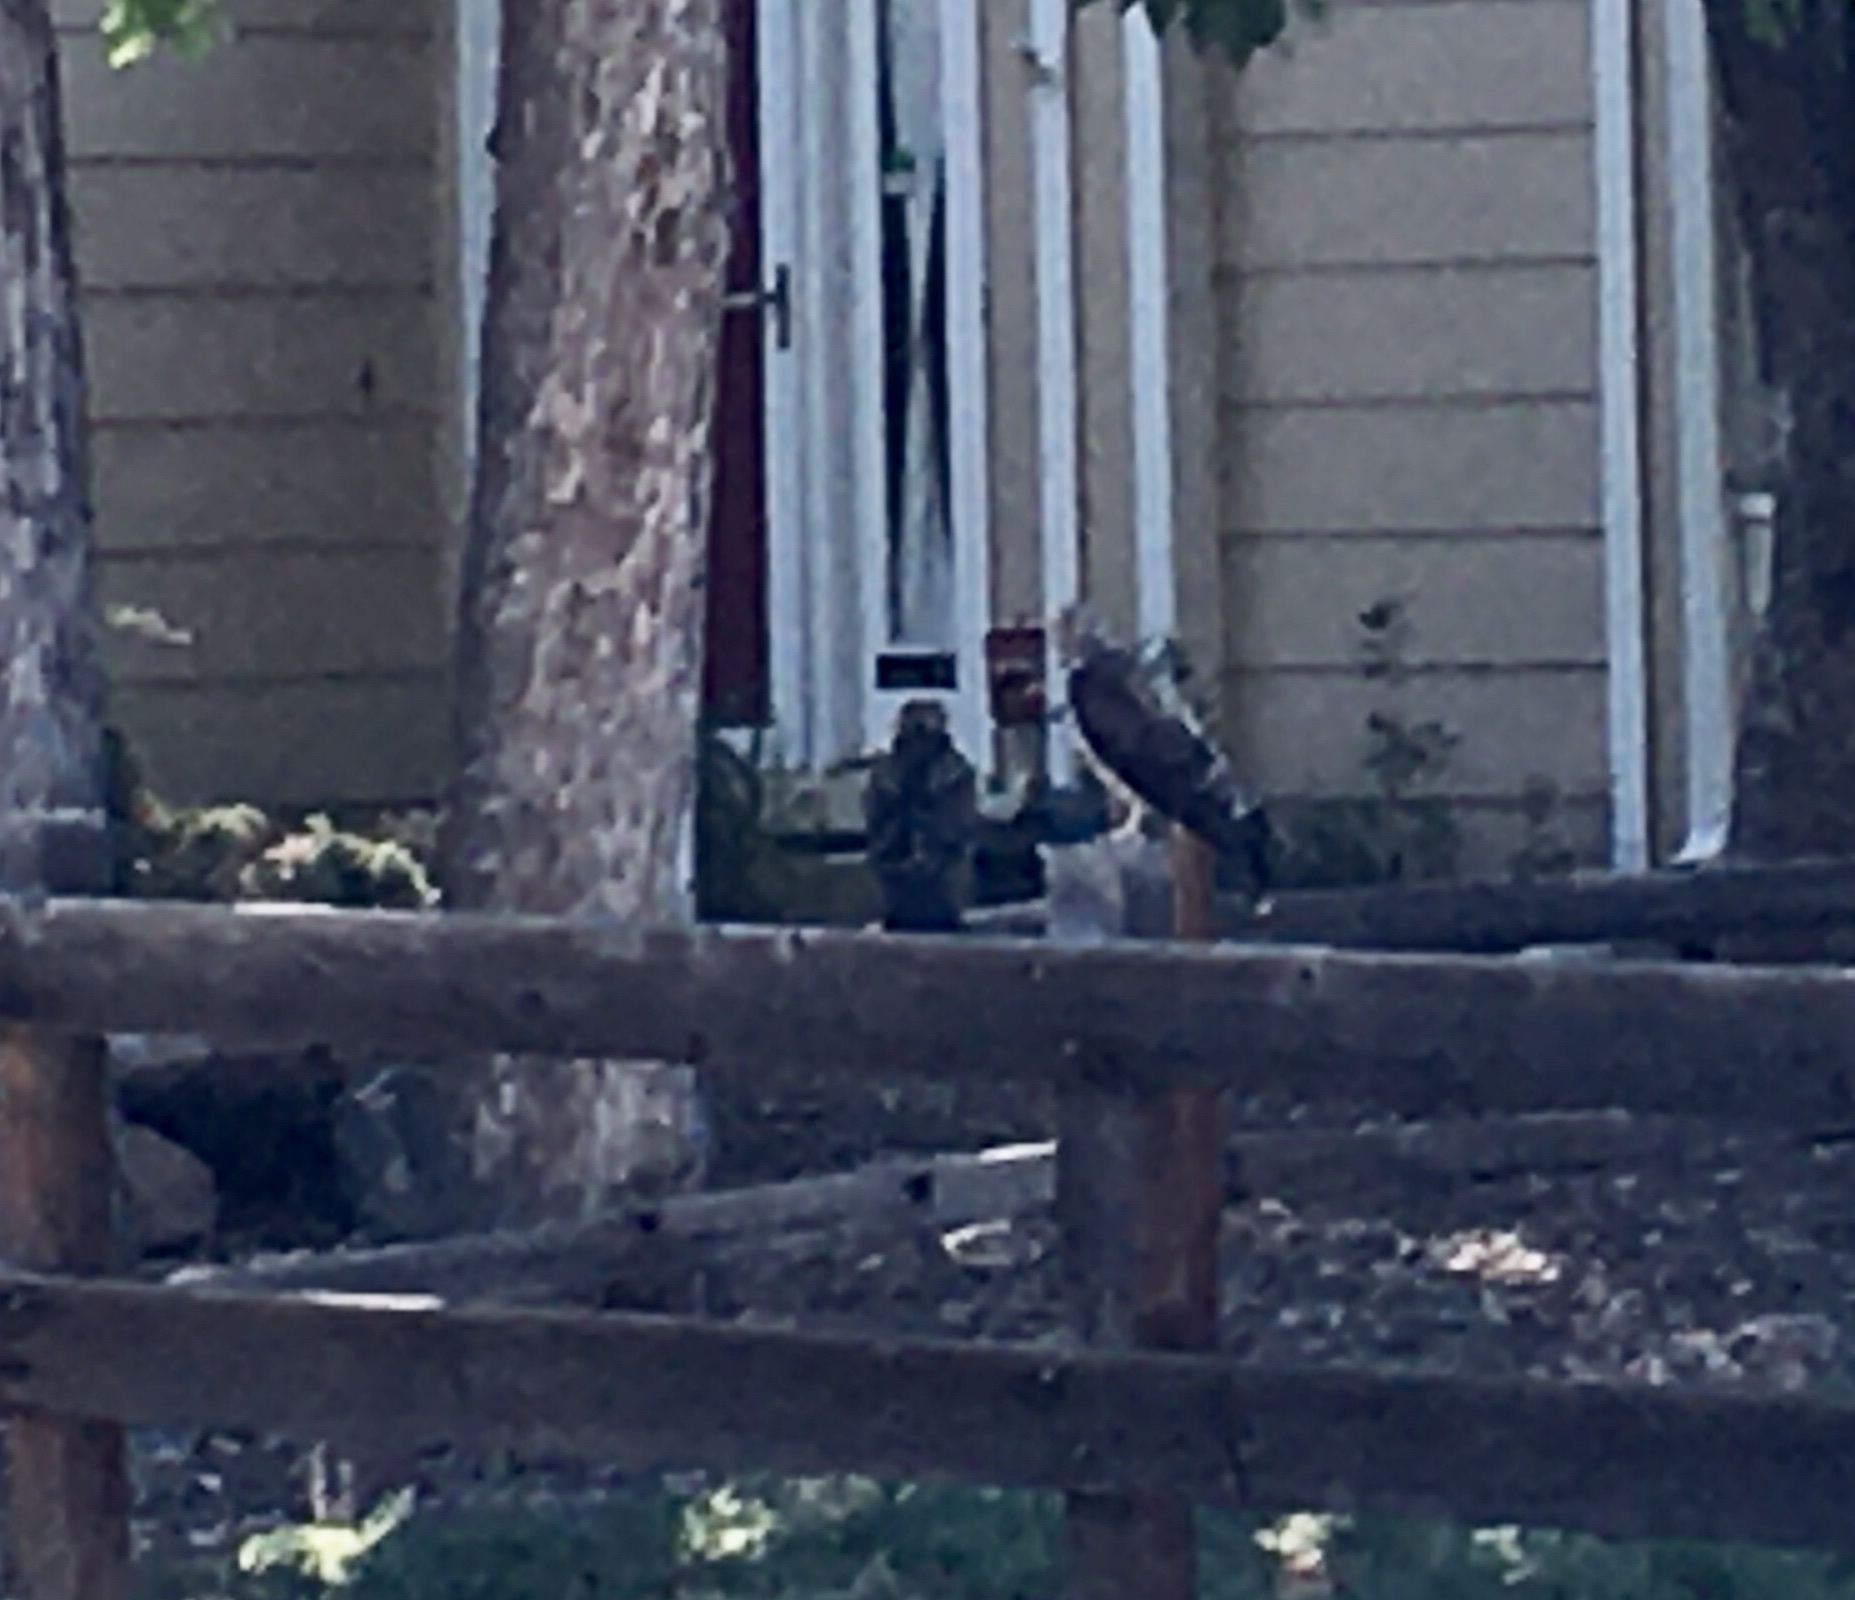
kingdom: Animalia
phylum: Chordata
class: Aves
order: Accipitriformes
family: Accipitridae
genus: Buteo
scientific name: Buteo swainsoni
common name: Swainson's hawk
